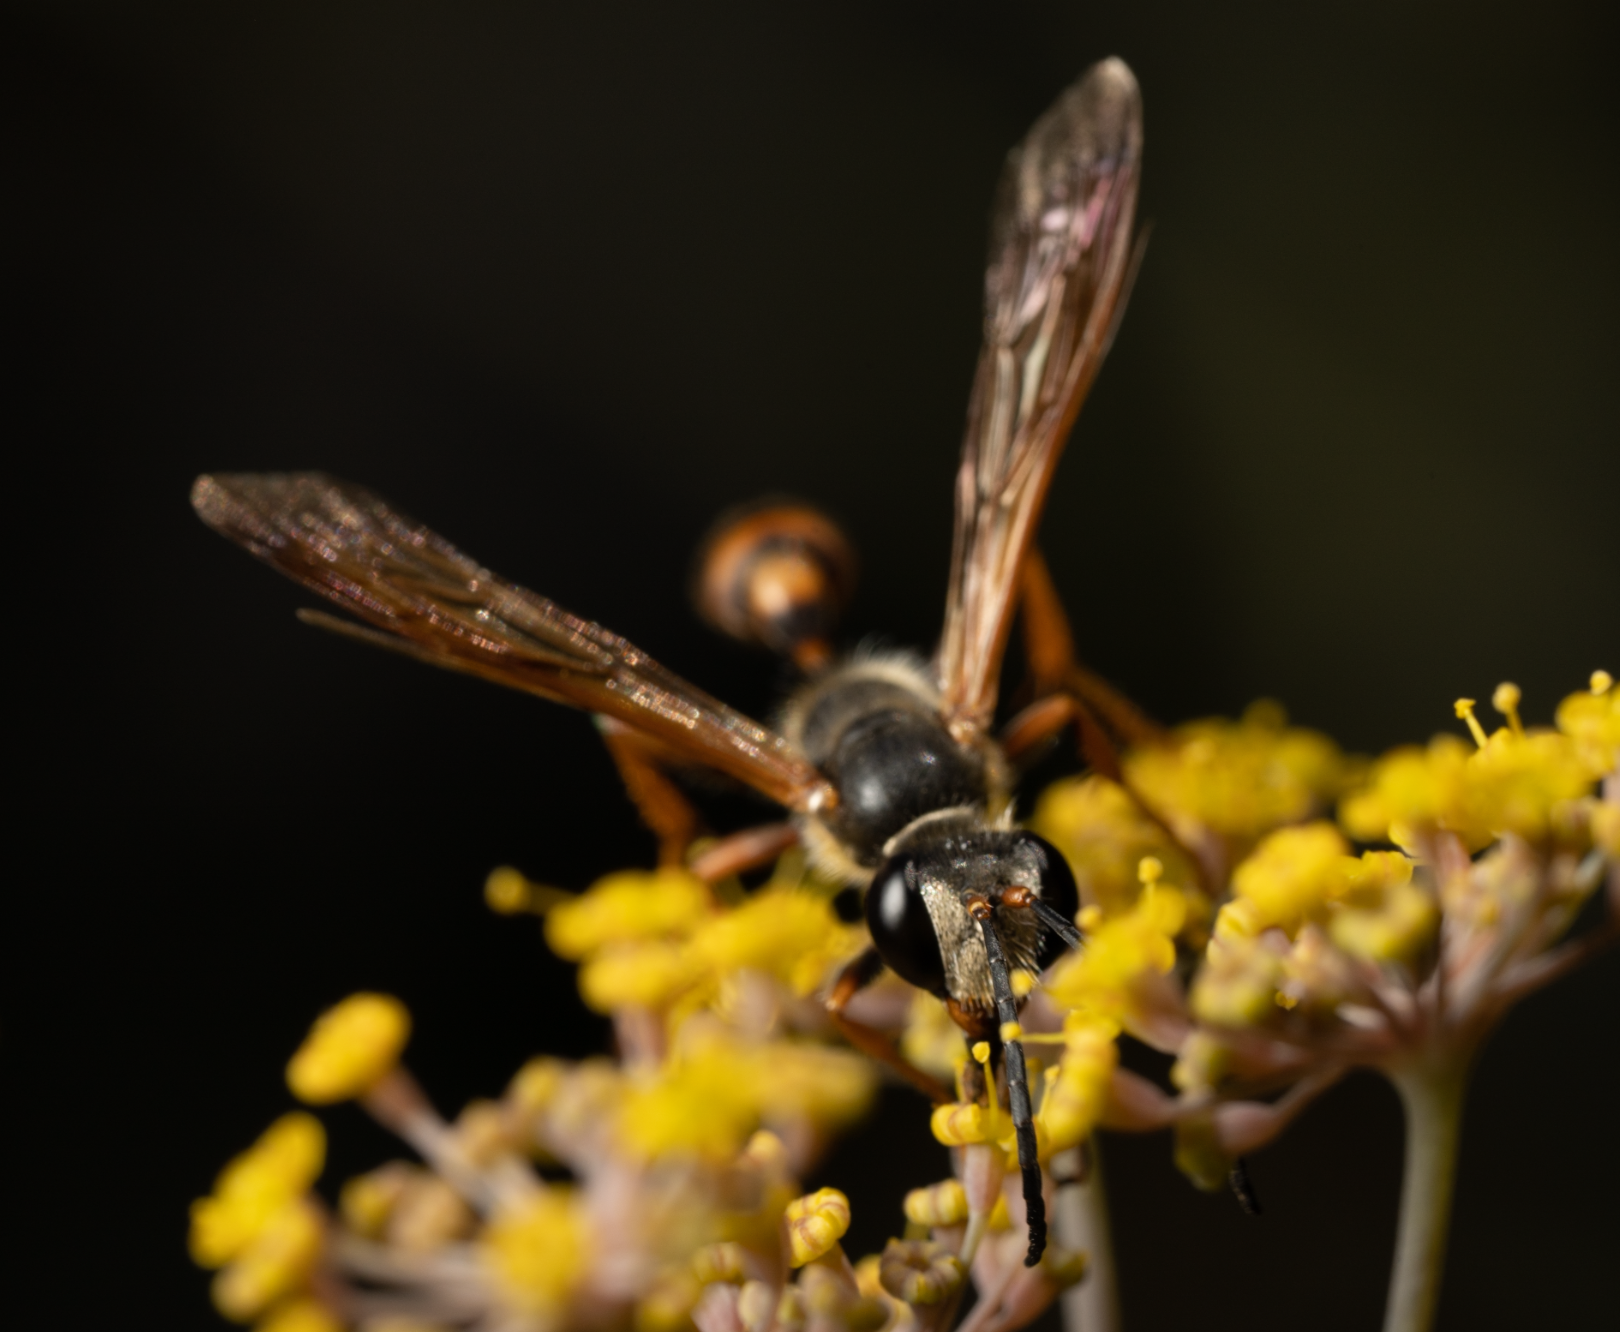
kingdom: Animalia
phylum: Arthropoda
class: Insecta
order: Hymenoptera
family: Sphecidae
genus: Isodontia
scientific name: Isodontia elegans
